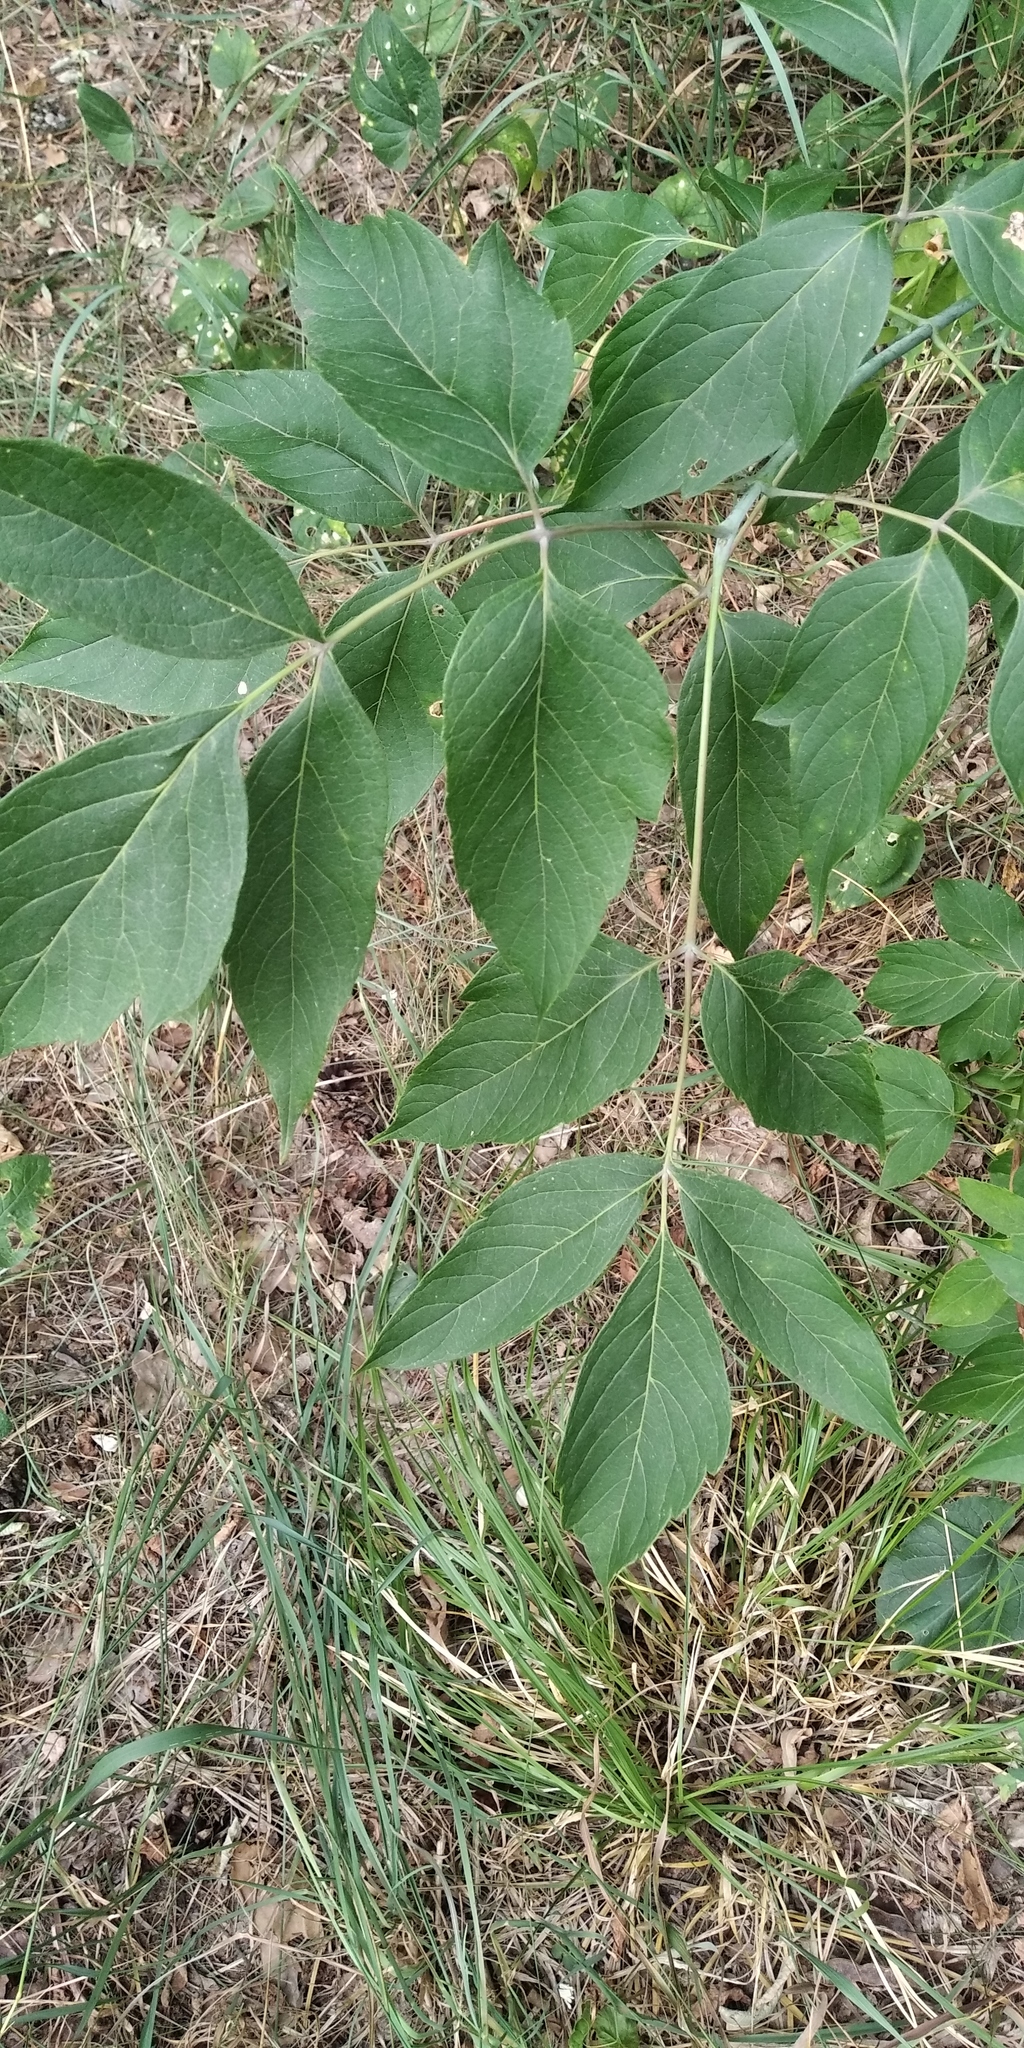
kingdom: Plantae
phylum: Tracheophyta
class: Magnoliopsida
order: Sapindales
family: Sapindaceae
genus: Acer
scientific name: Acer negundo
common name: Ashleaf maple
